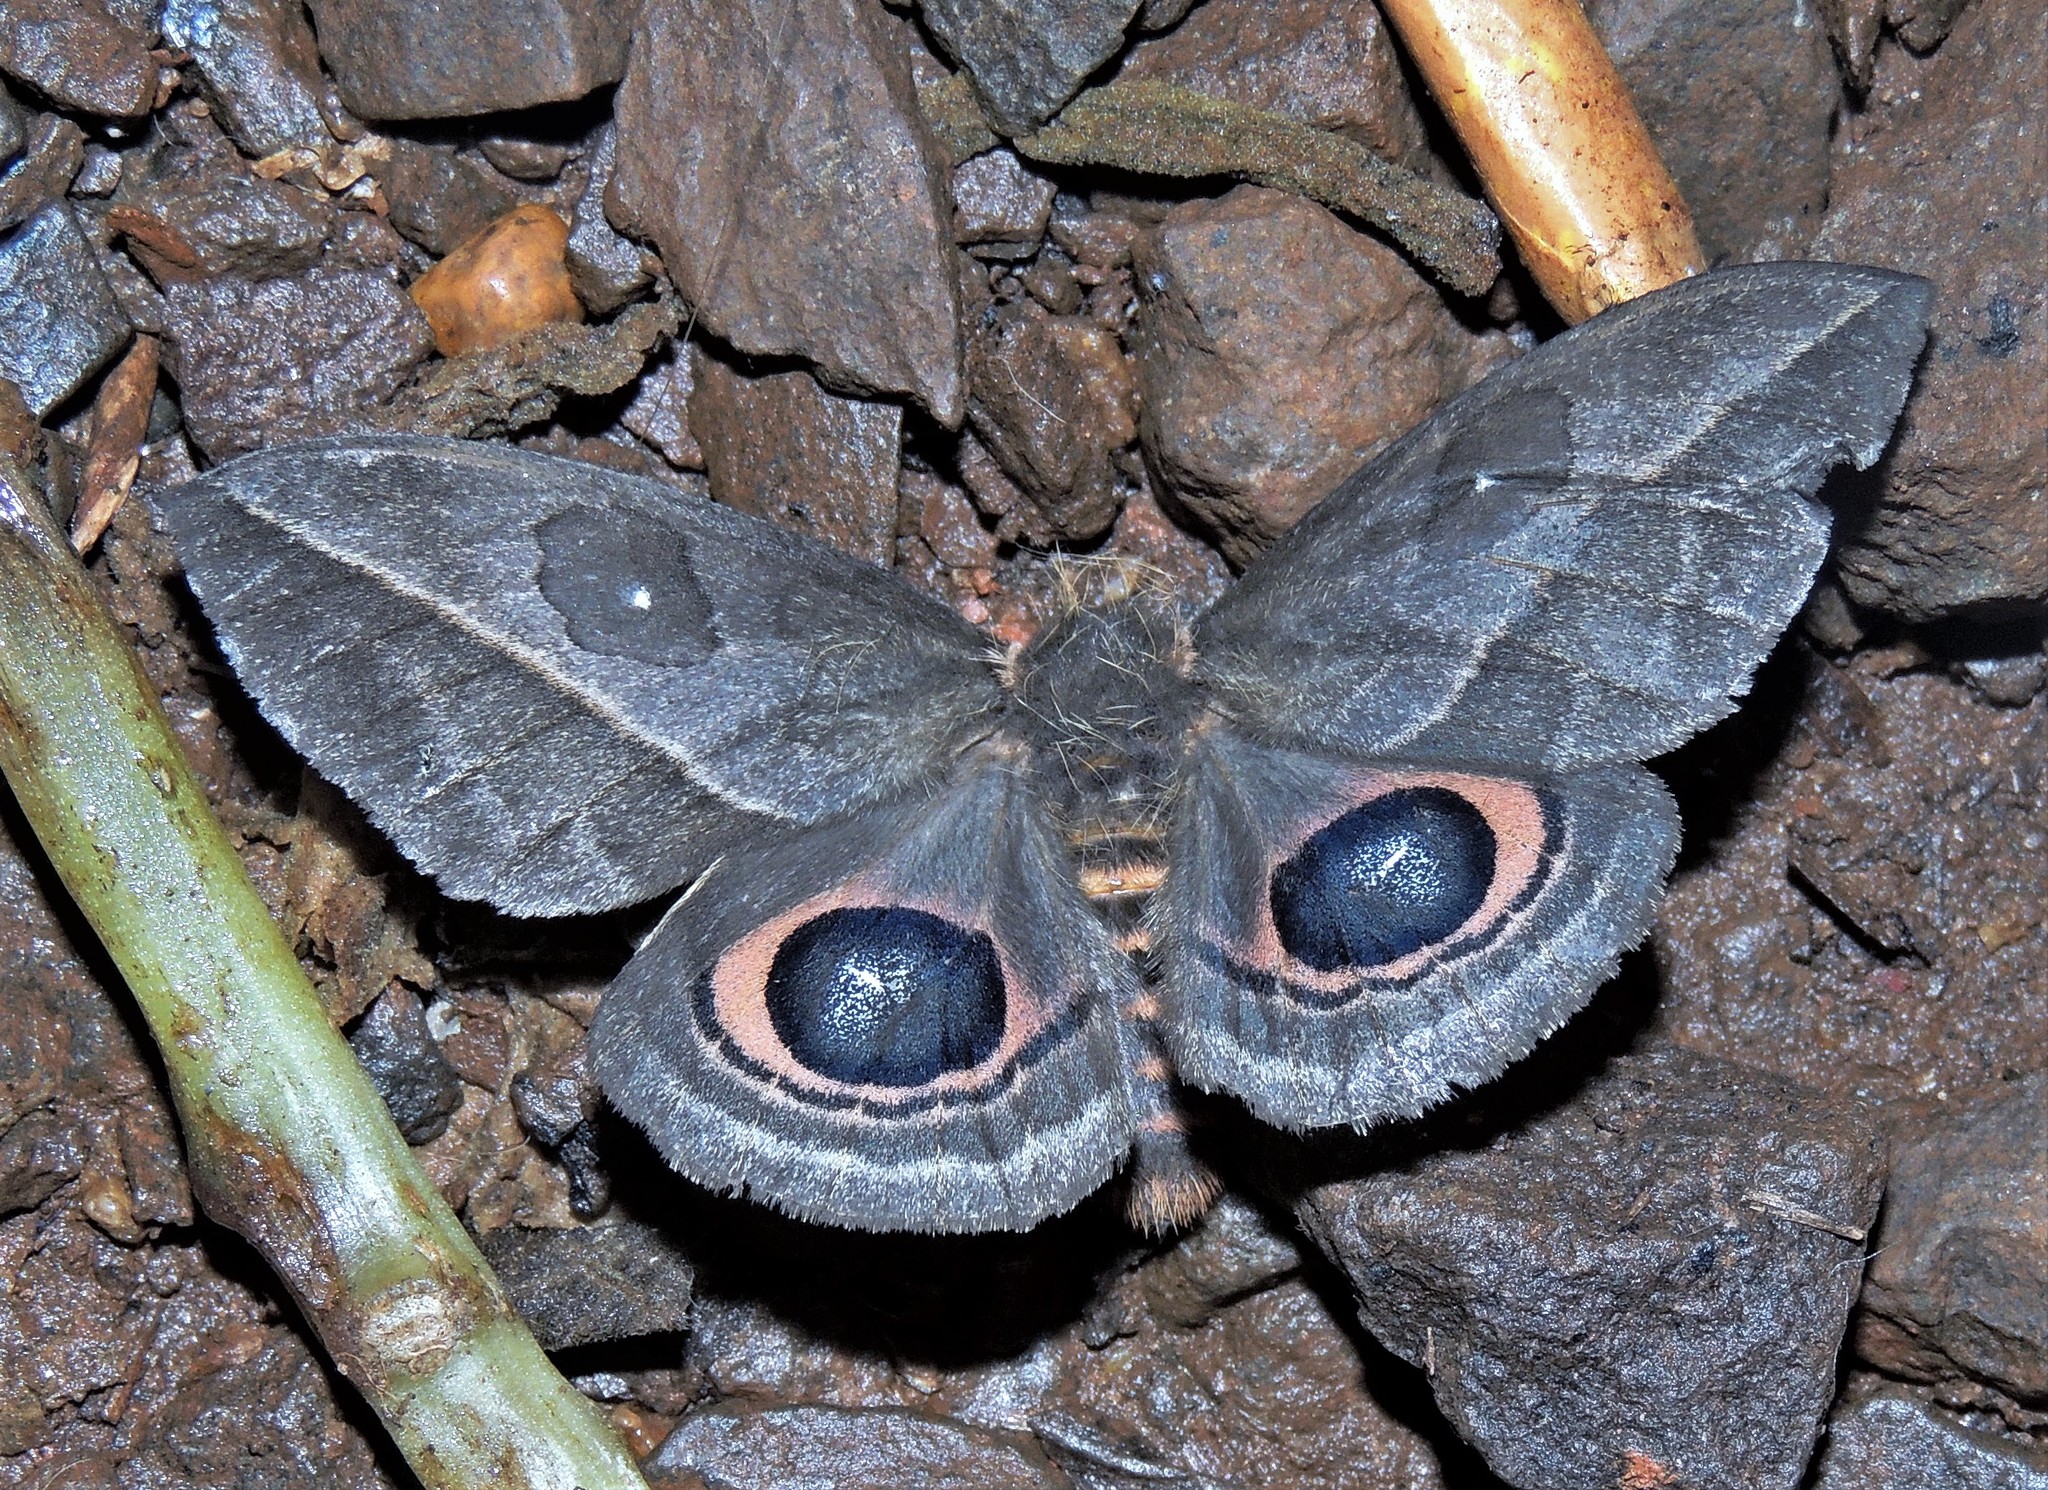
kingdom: Animalia
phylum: Arthropoda
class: Insecta
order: Lepidoptera
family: Saturniidae
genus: Automeris
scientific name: Automeris basalis
